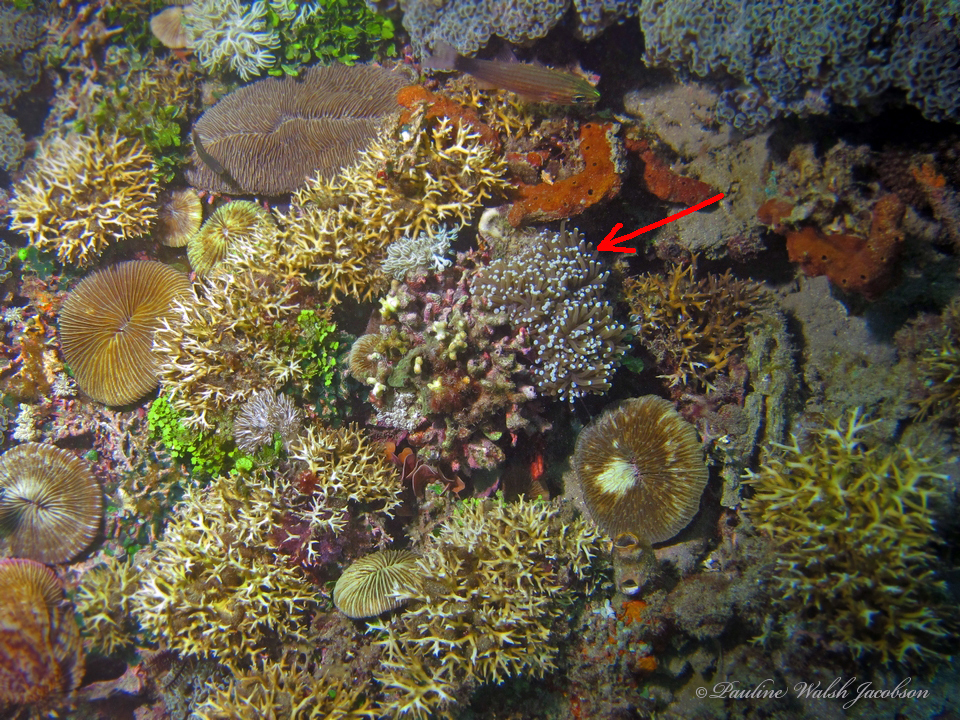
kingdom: Animalia
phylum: Cnidaria
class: Anthozoa
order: Scleractinia
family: Euphylliidae
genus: Euphyllia
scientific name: Euphyllia glabrescens
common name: Joker coral
